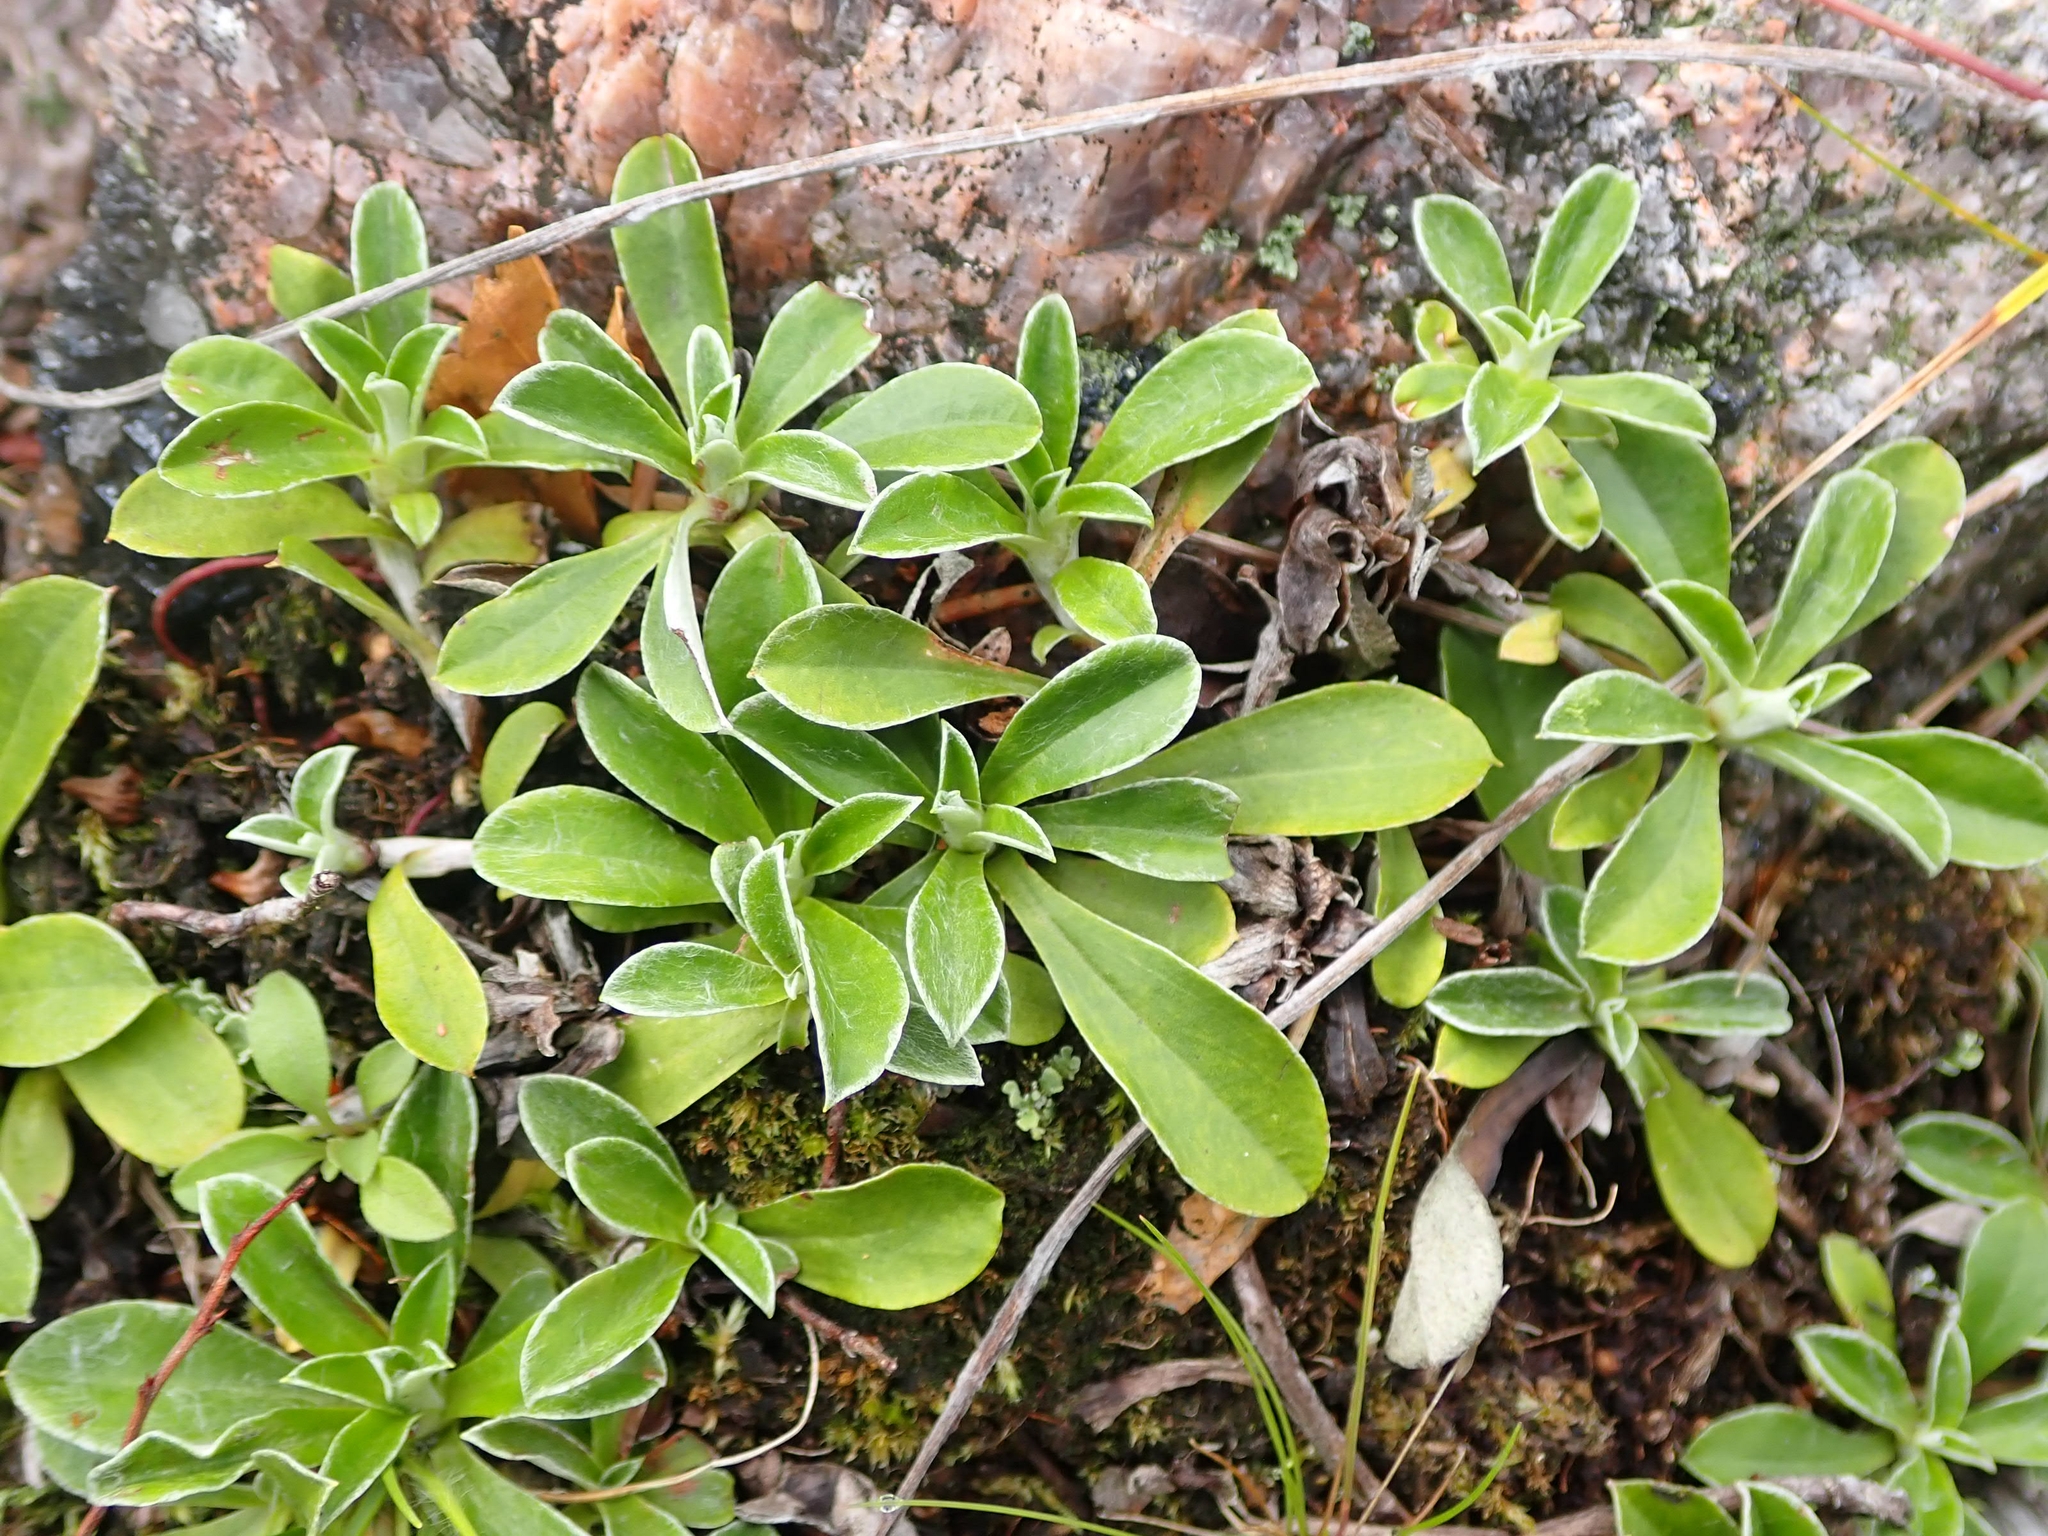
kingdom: Plantae
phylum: Tracheophyta
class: Magnoliopsida
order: Asterales
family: Asteraceae
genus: Antennaria
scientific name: Antennaria howellii
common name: Howell's pussytoes
